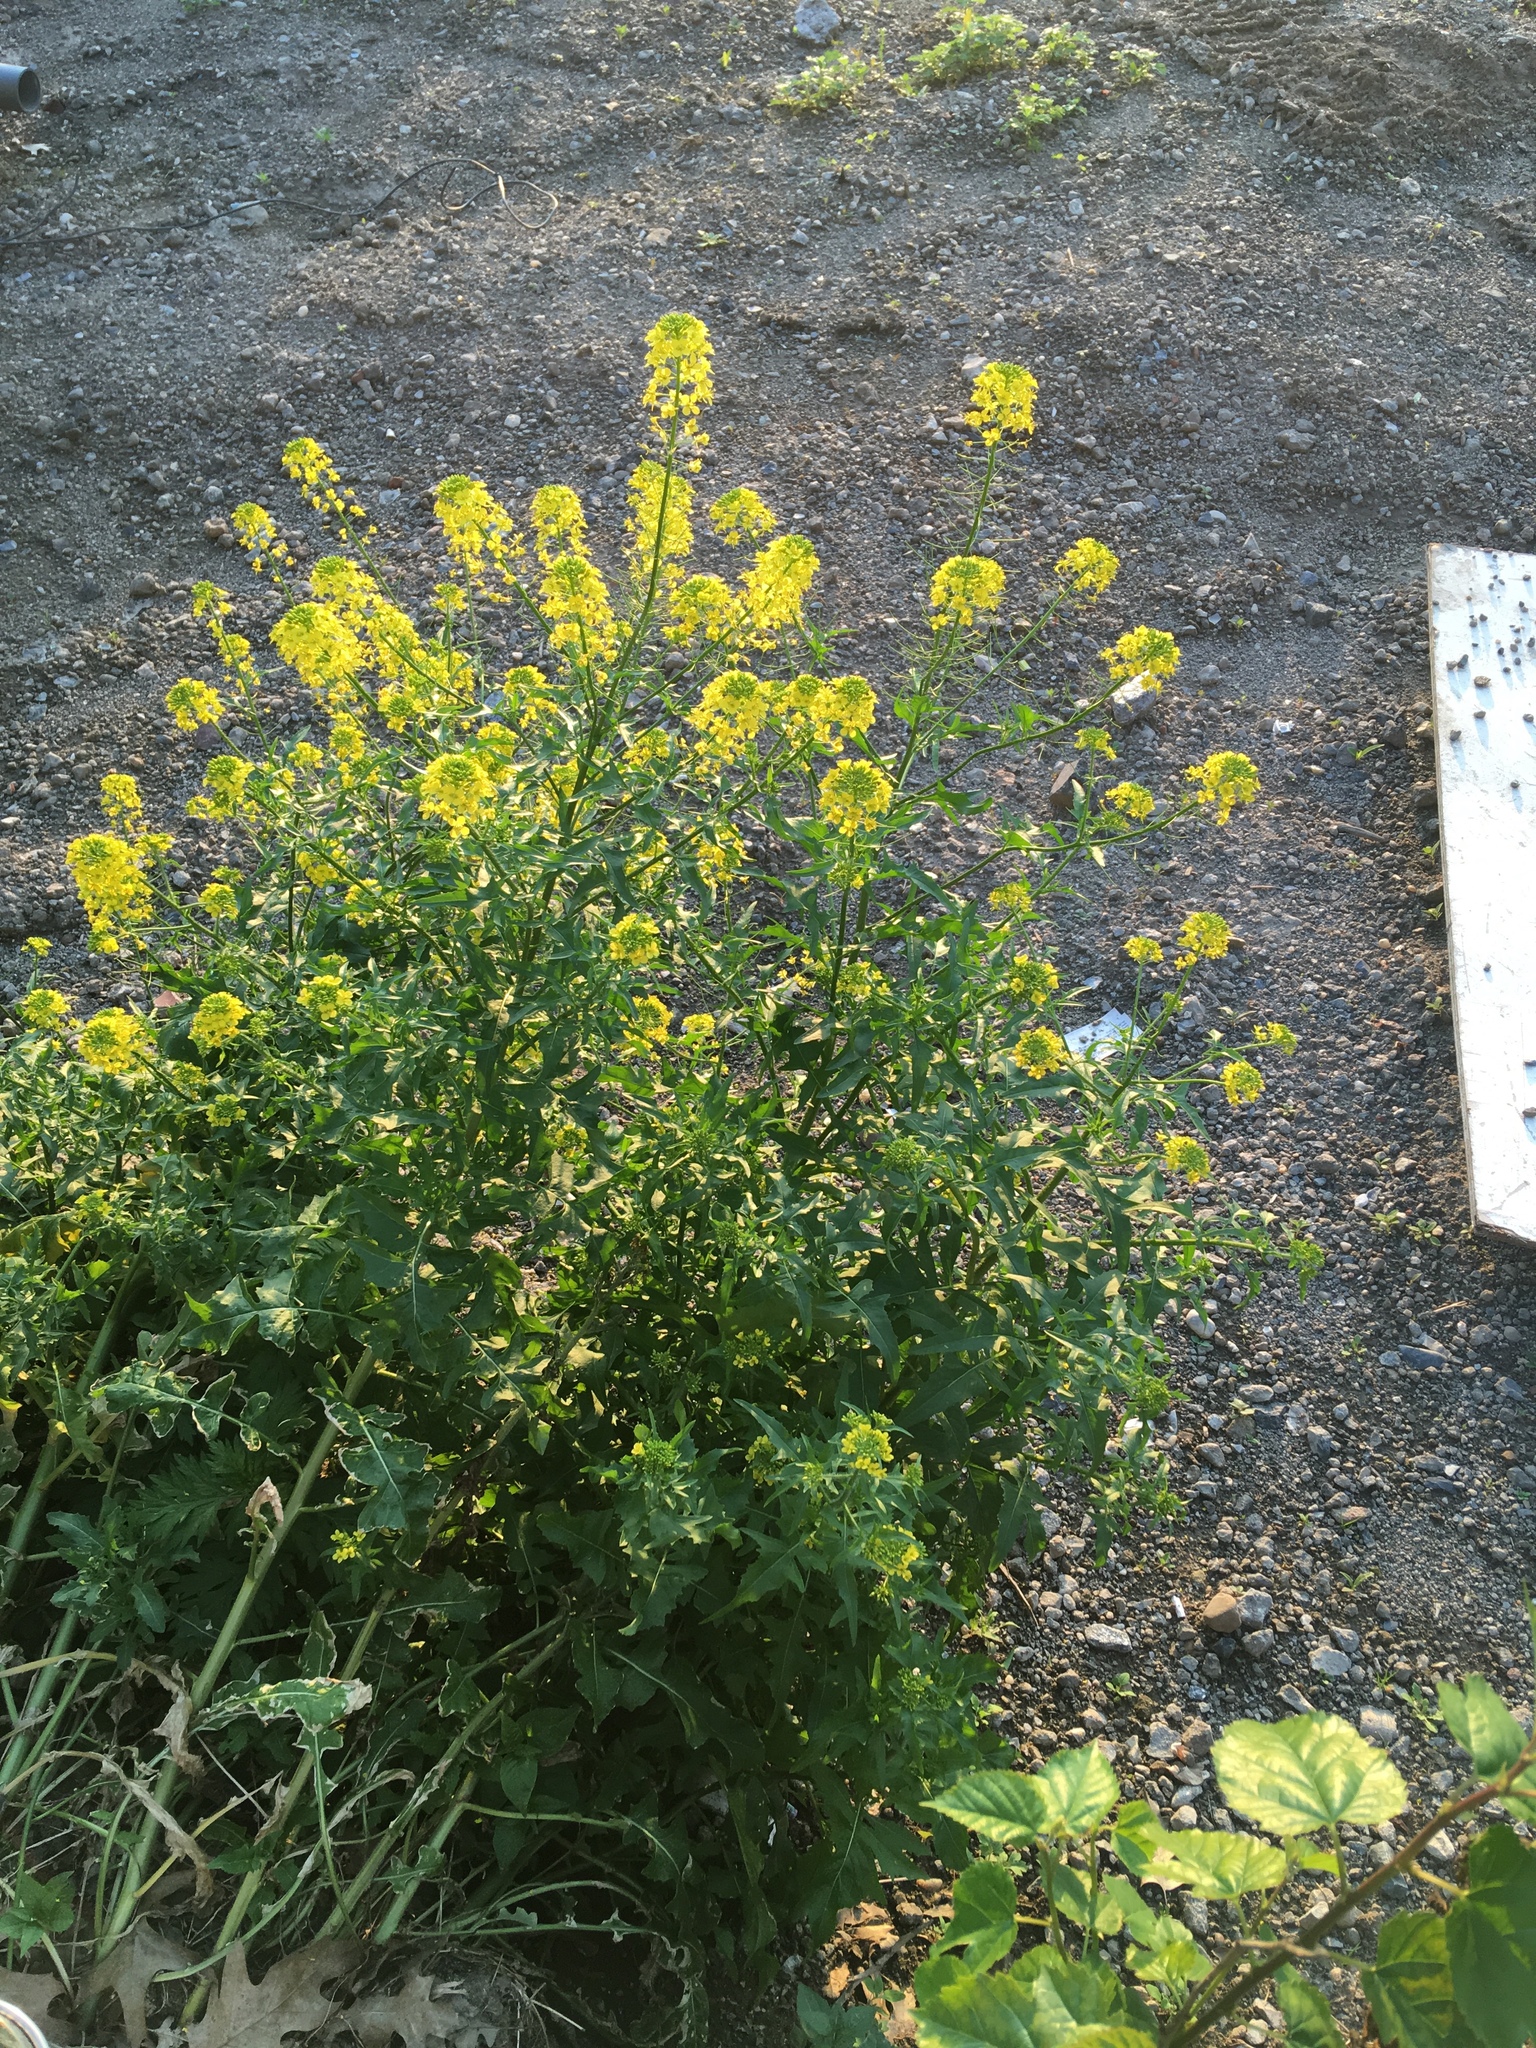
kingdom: Plantae
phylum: Tracheophyta
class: Magnoliopsida
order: Brassicales
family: Brassicaceae
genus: Sisymbrium
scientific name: Sisymbrium loeselii
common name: False london-rocket
